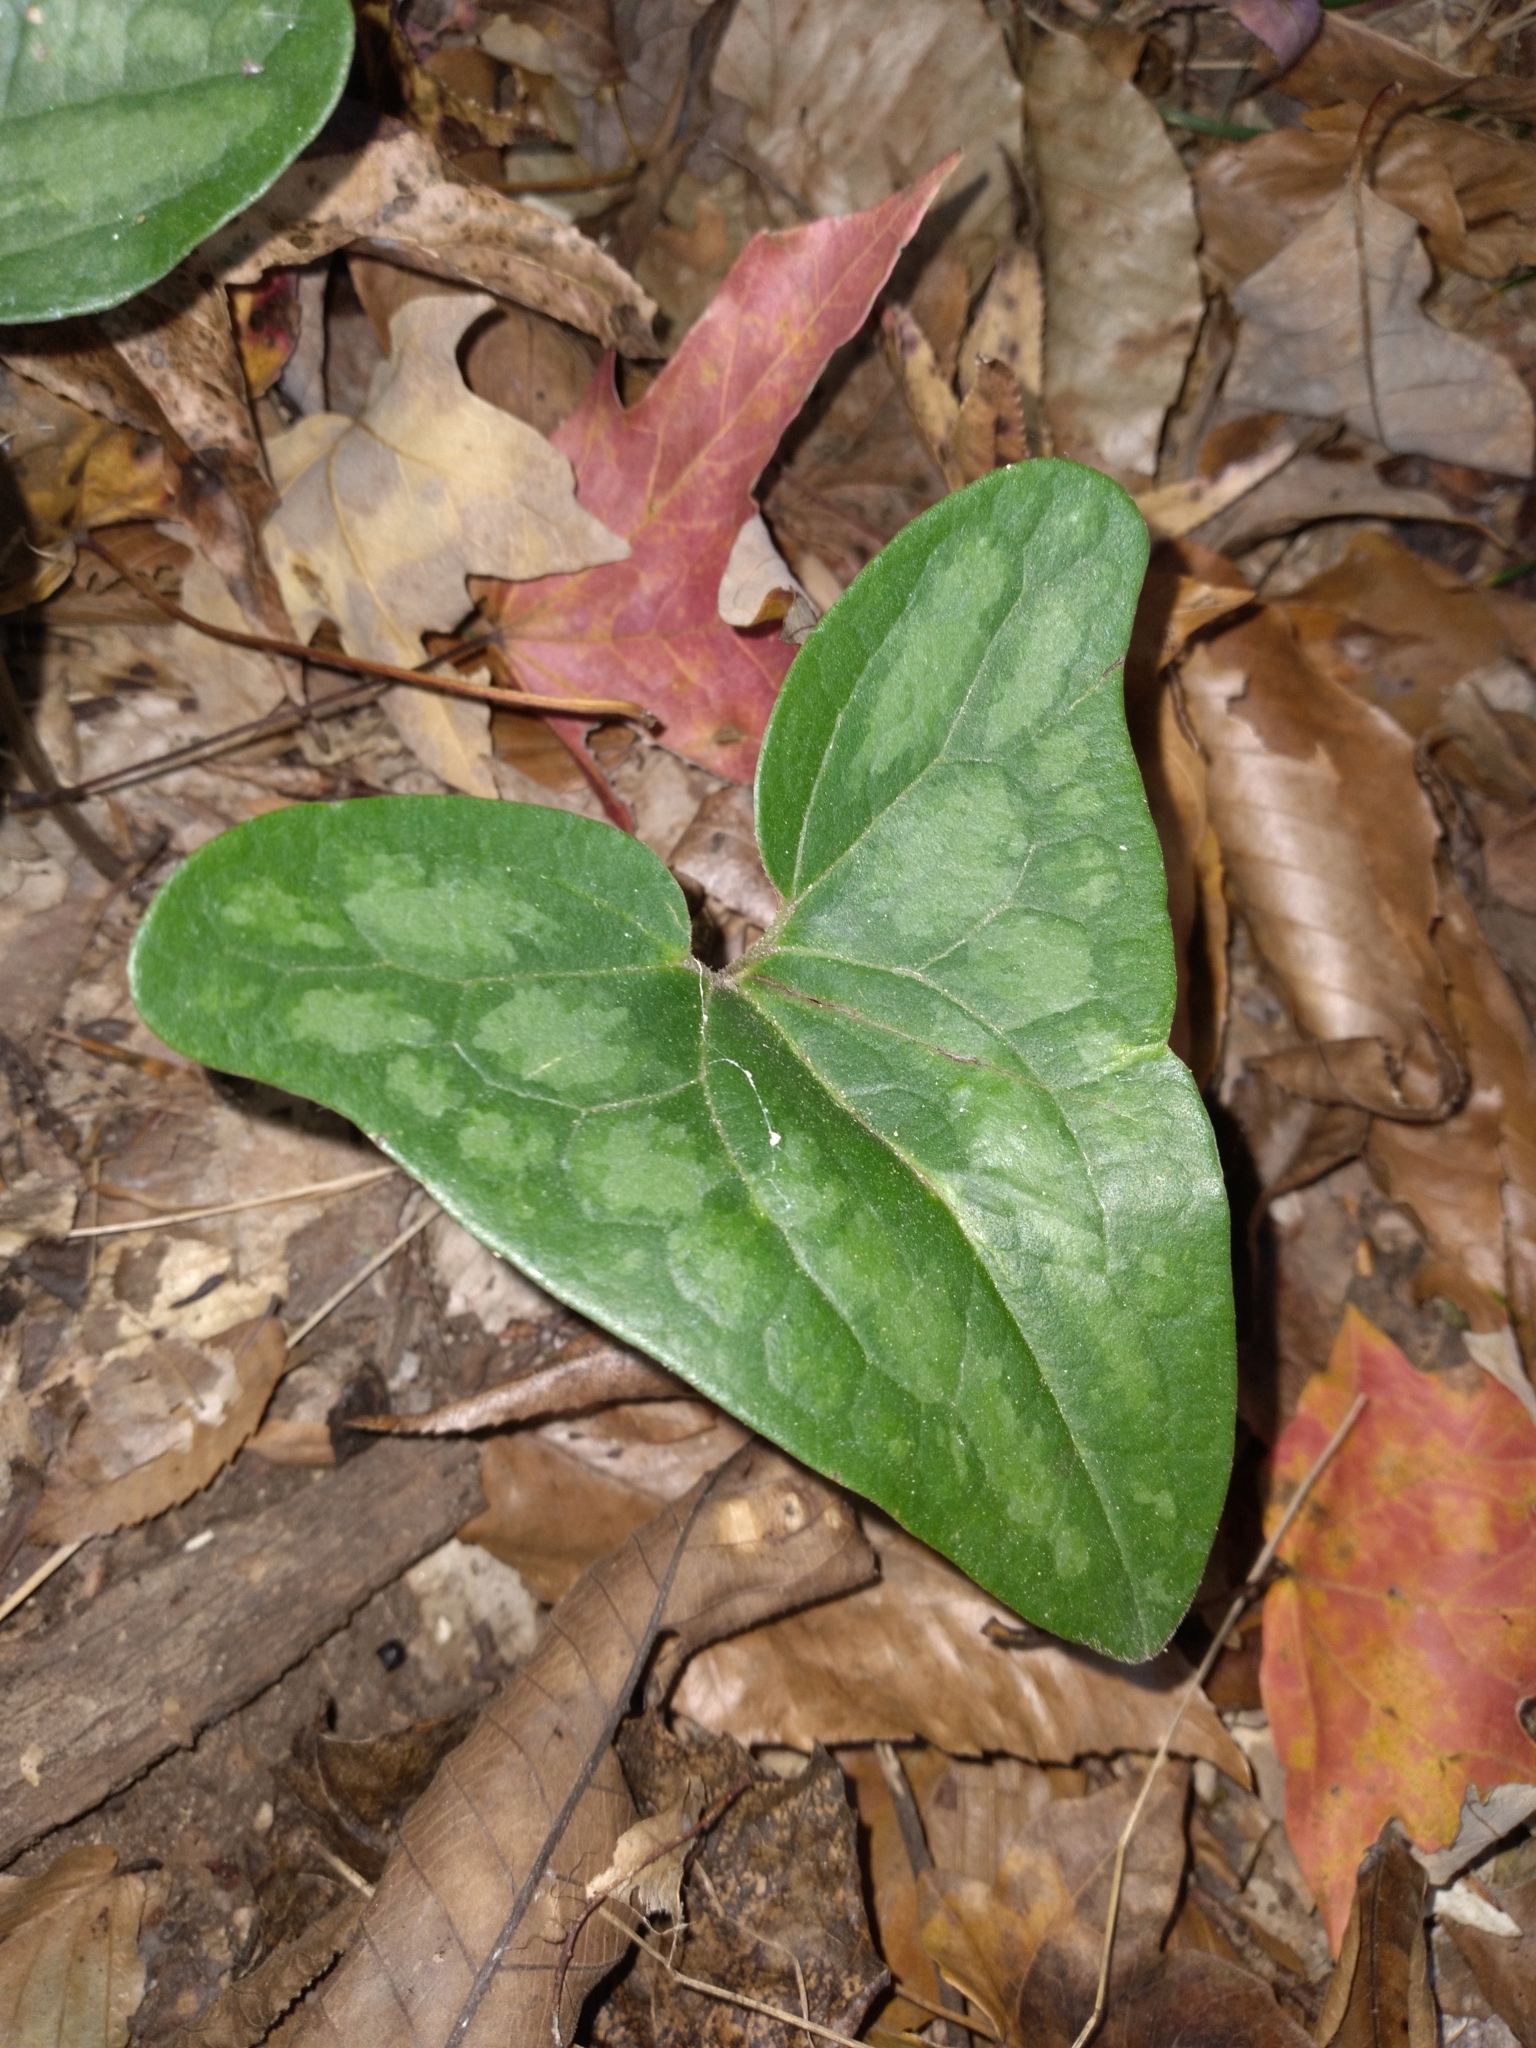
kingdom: Plantae
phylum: Tracheophyta
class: Magnoliopsida
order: Piperales
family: Aristolochiaceae
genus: Hexastylis
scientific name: Hexastylis arifolia
